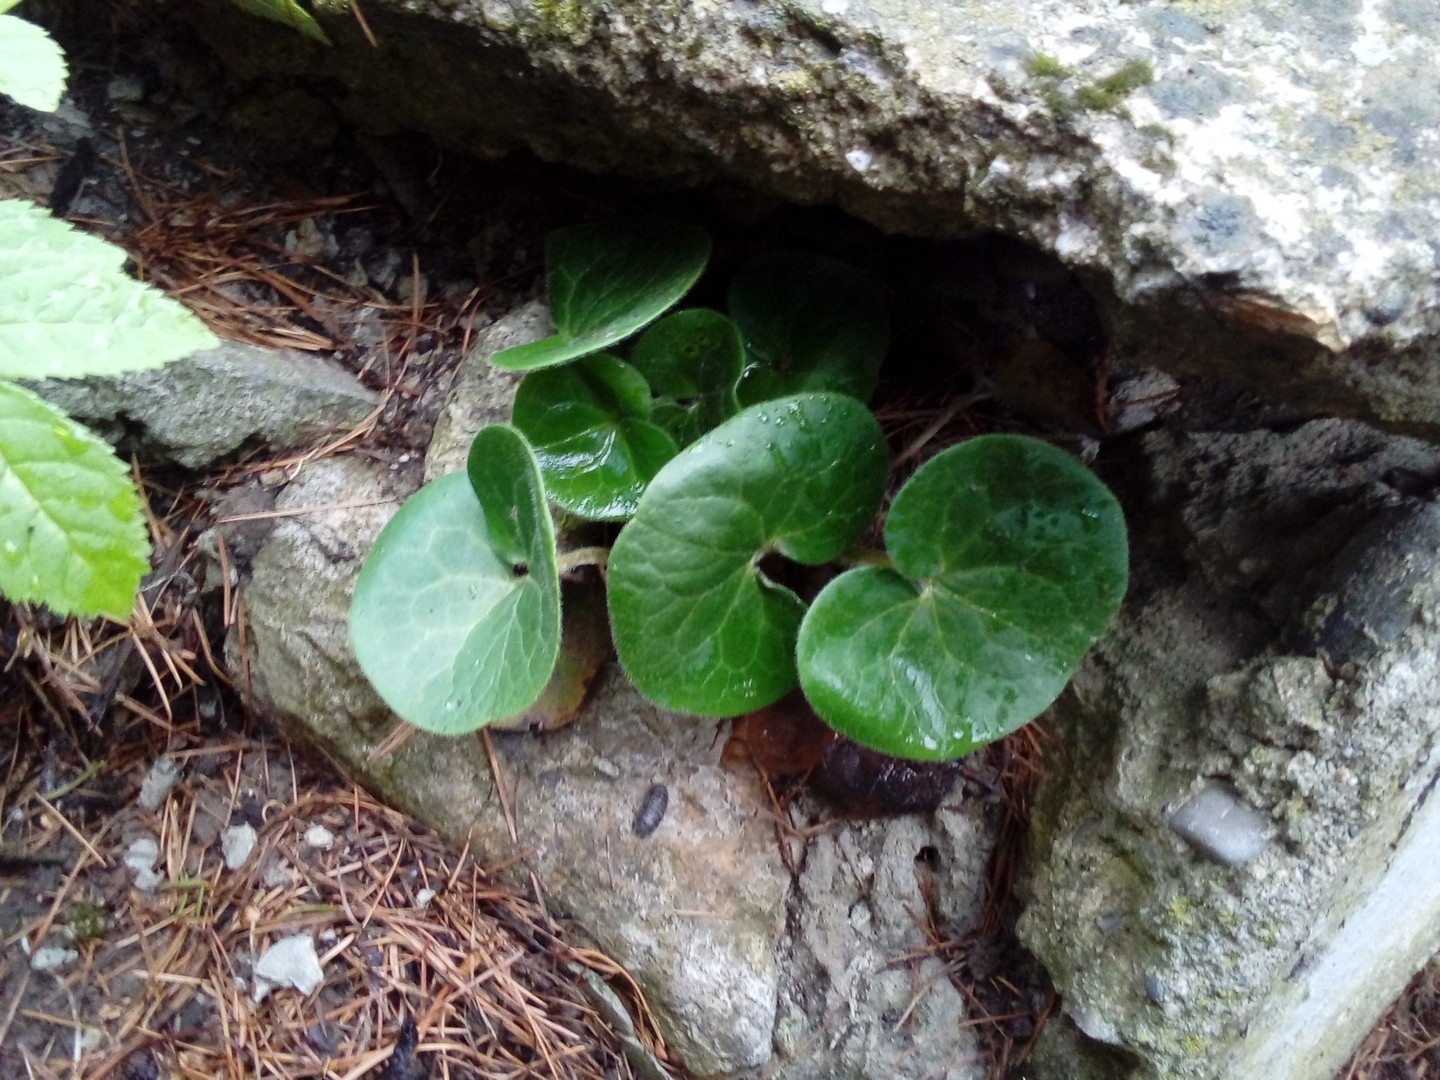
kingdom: Plantae
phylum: Tracheophyta
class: Magnoliopsida
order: Piperales
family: Aristolochiaceae
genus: Asarum
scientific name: Asarum europaeum
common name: Asarabacca
